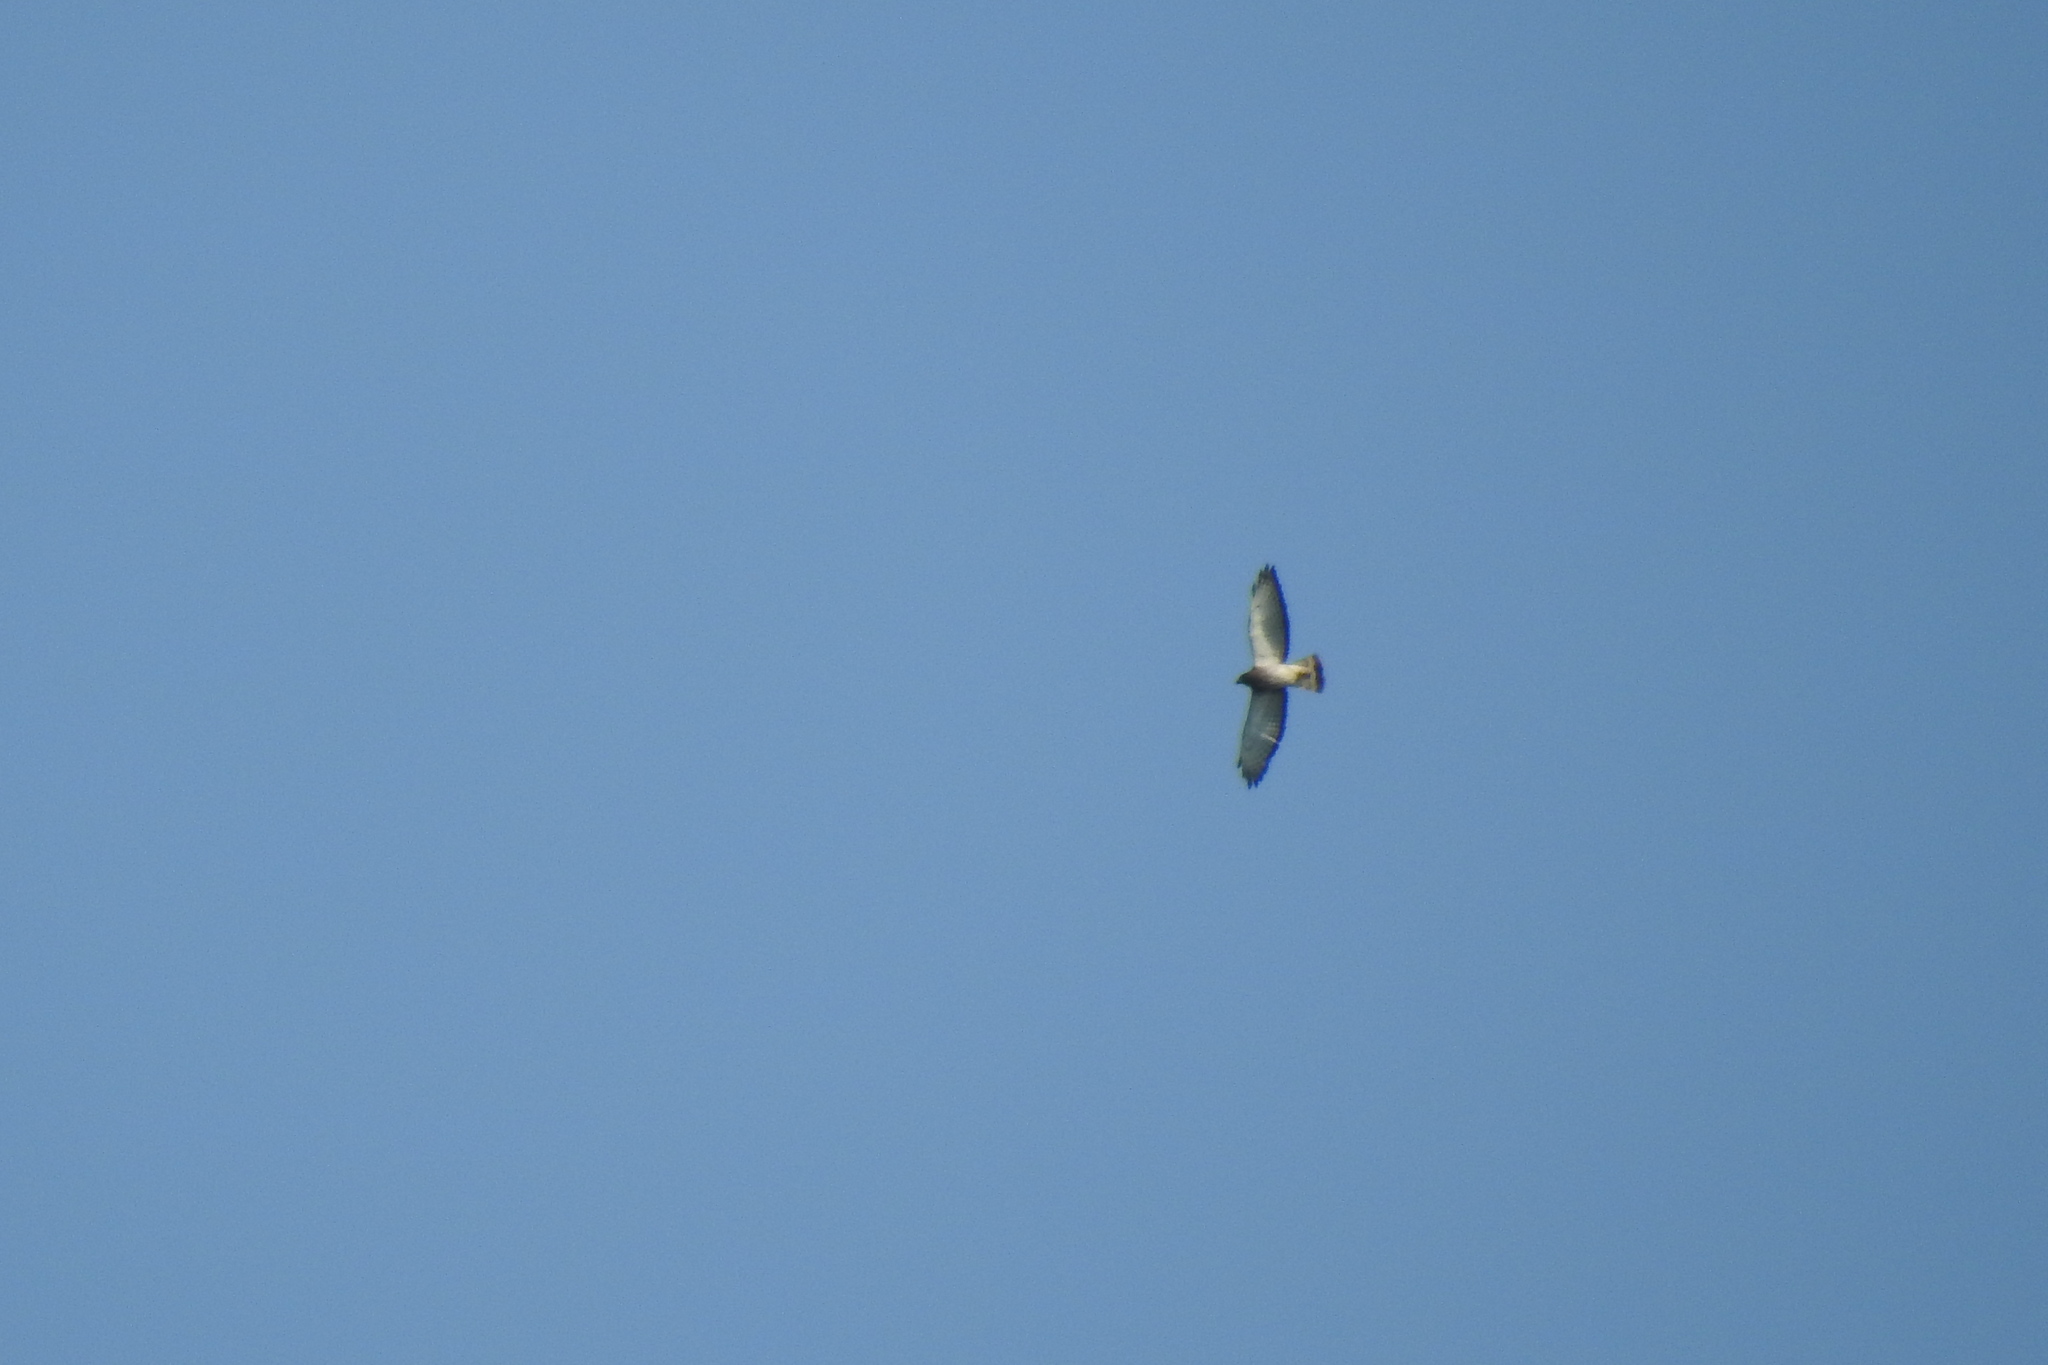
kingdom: Animalia
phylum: Chordata
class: Aves
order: Accipitriformes
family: Accipitridae
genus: Buteo
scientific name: Buteo platypterus
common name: Broad-winged hawk
